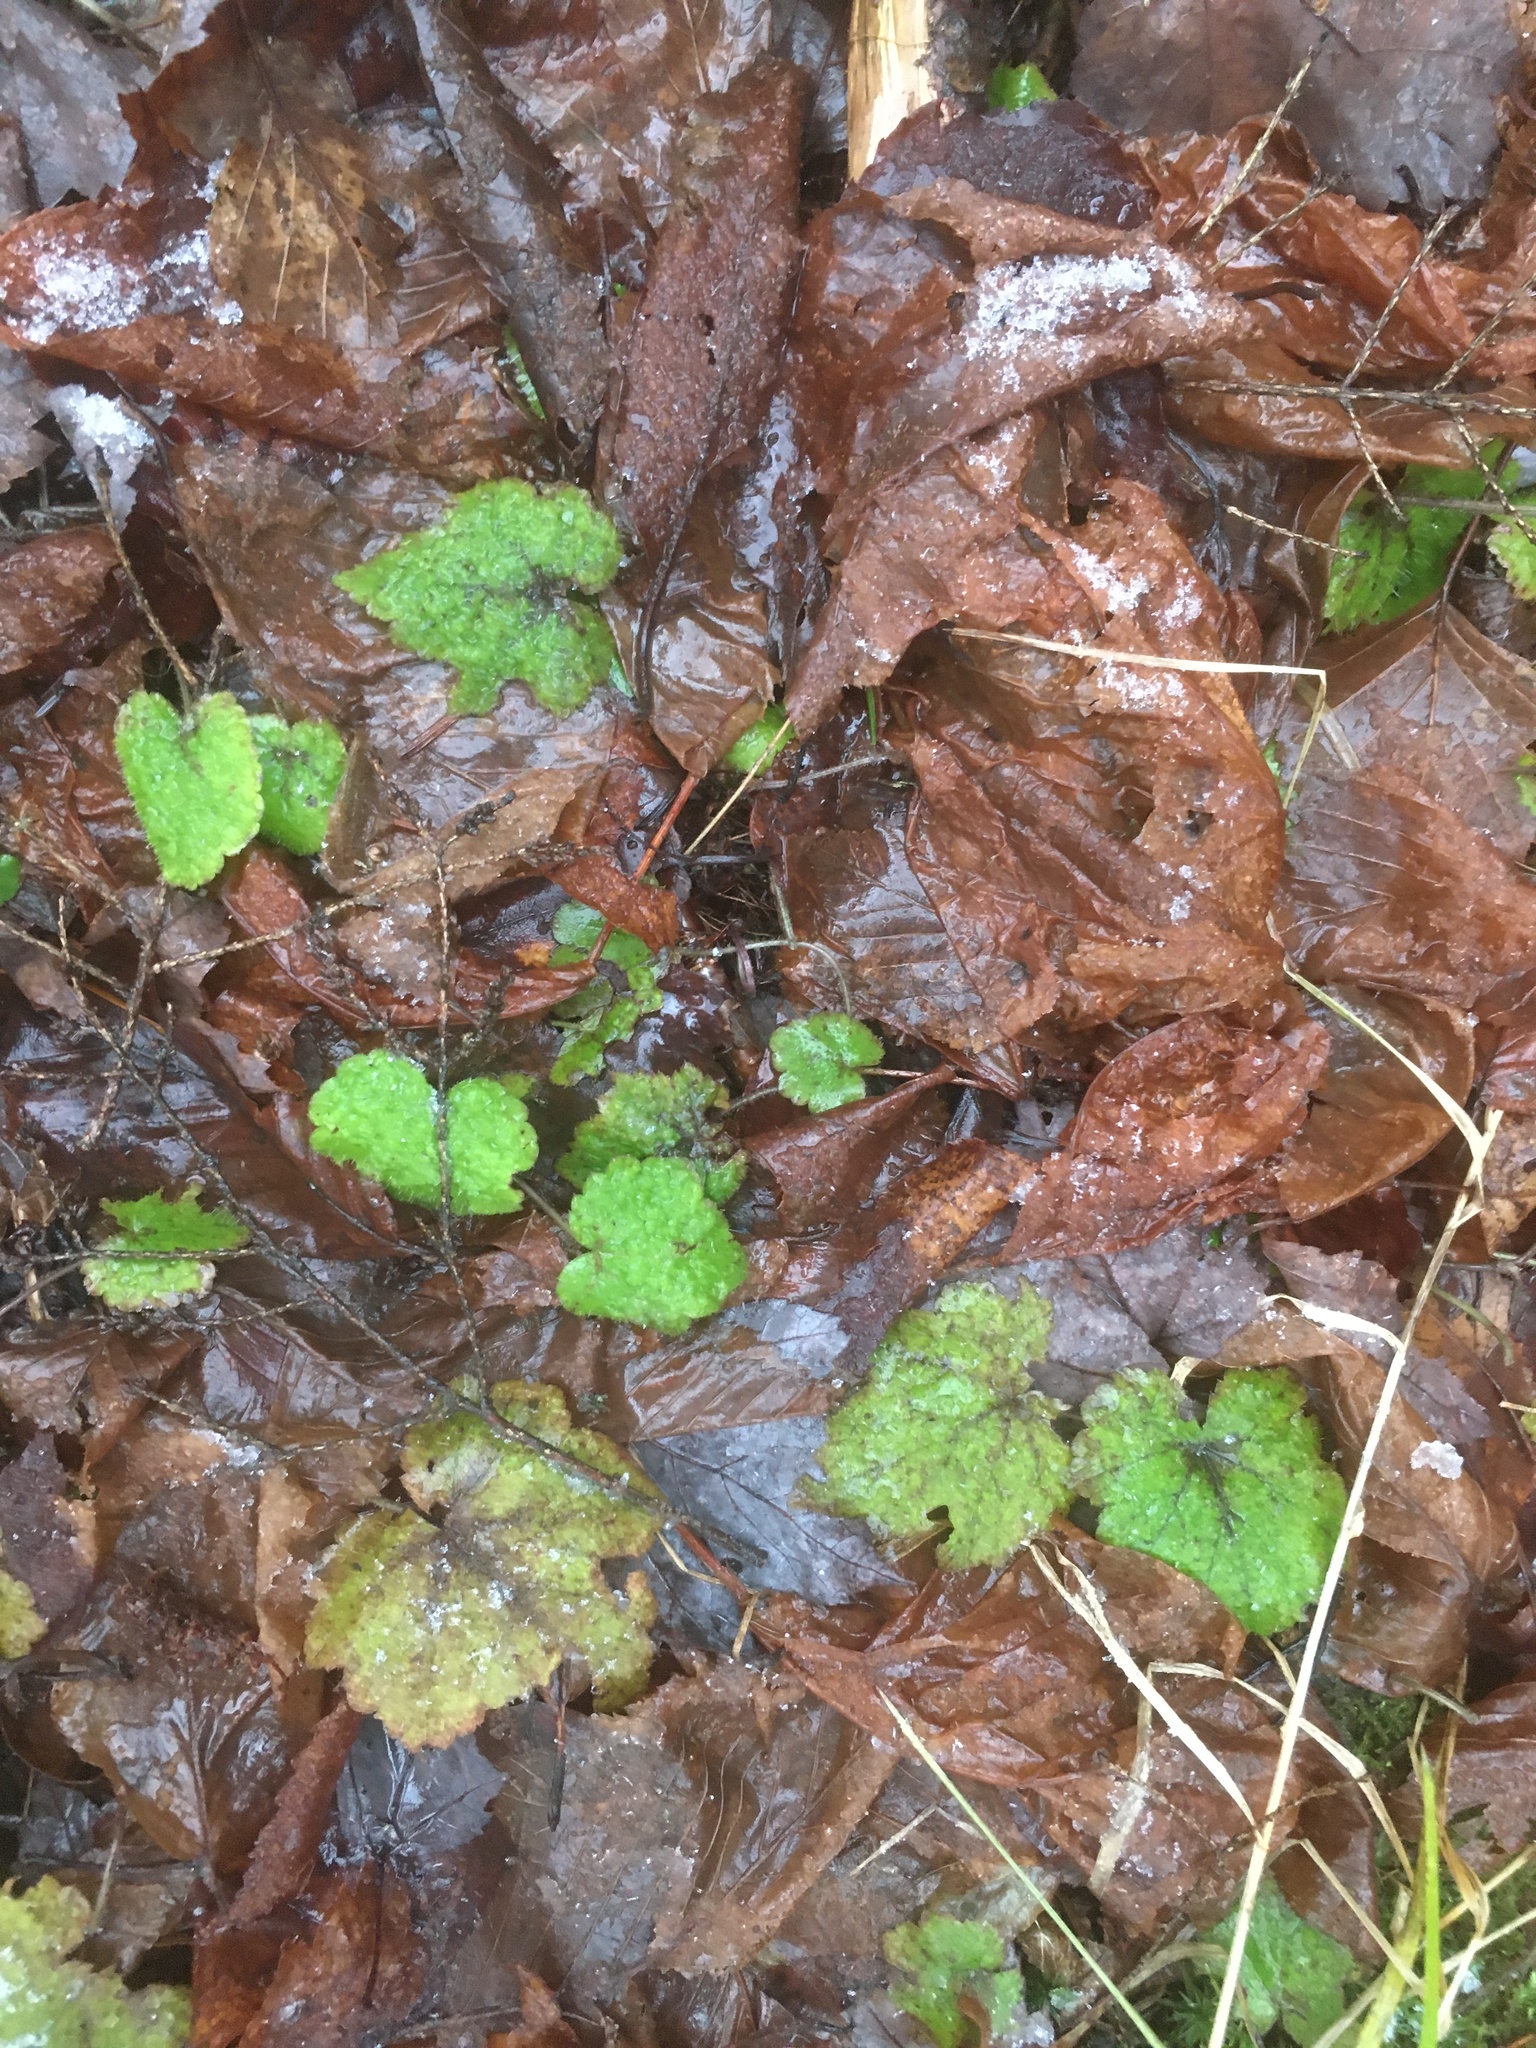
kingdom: Plantae
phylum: Tracheophyta
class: Magnoliopsida
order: Saxifragales
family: Saxifragaceae
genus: Tiarella
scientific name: Tiarella stolonifera
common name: Stoloniferous foamflower
